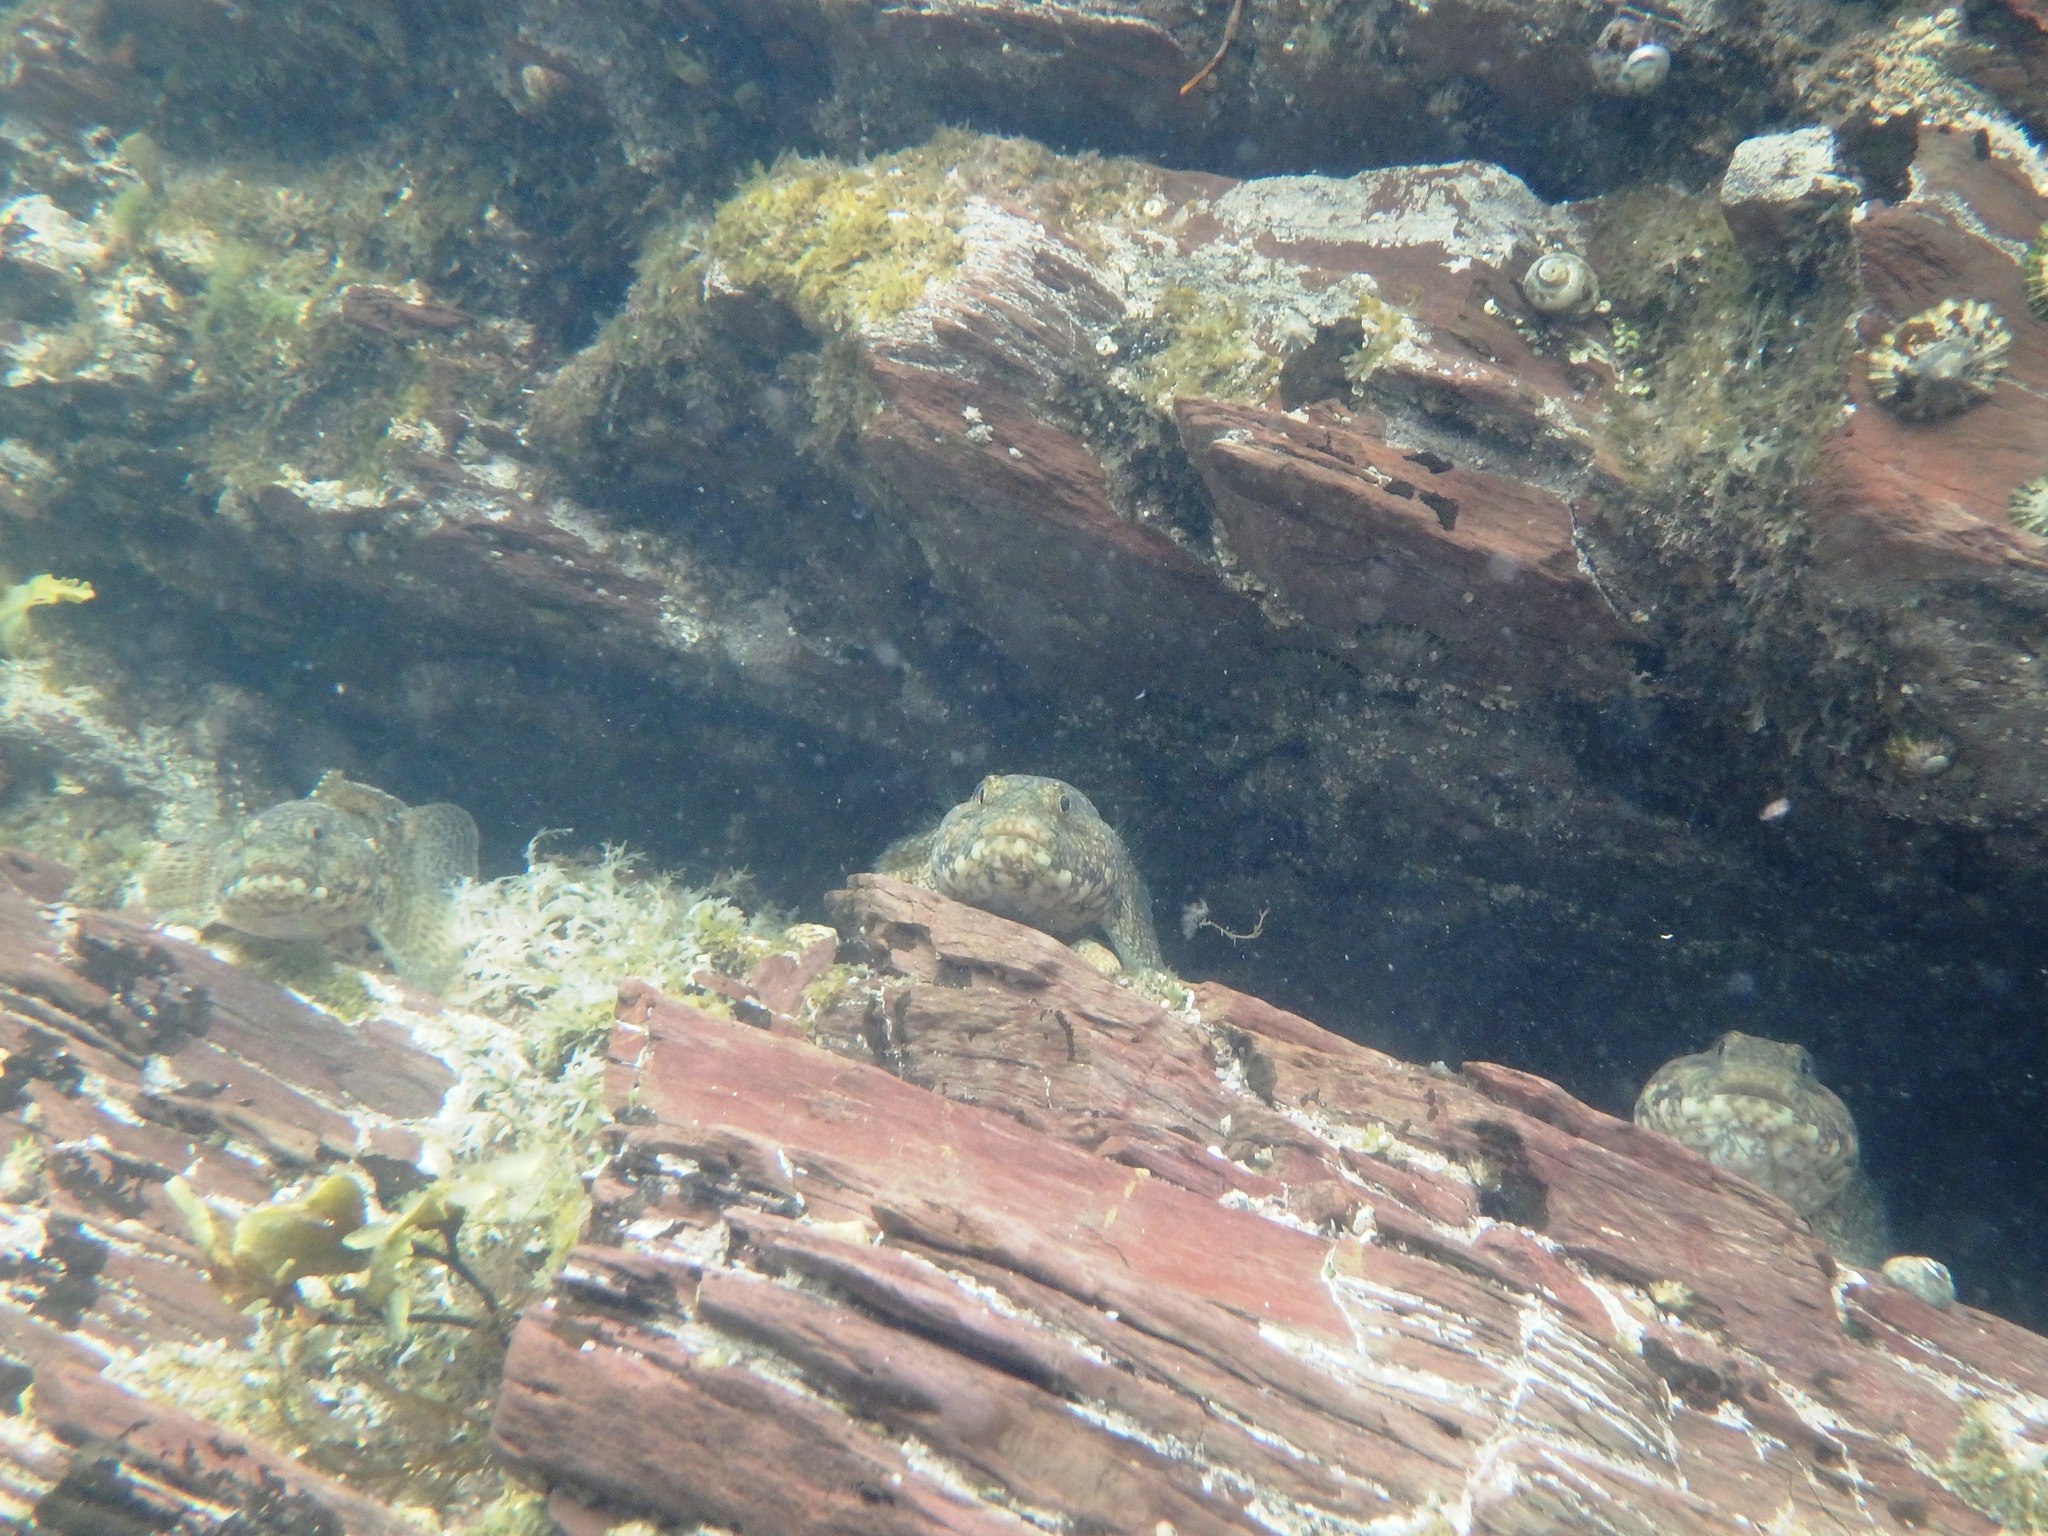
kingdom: Animalia
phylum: Chordata
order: Perciformes
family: Gobiidae
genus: Gobius
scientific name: Gobius cobitis
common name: Giant goby
